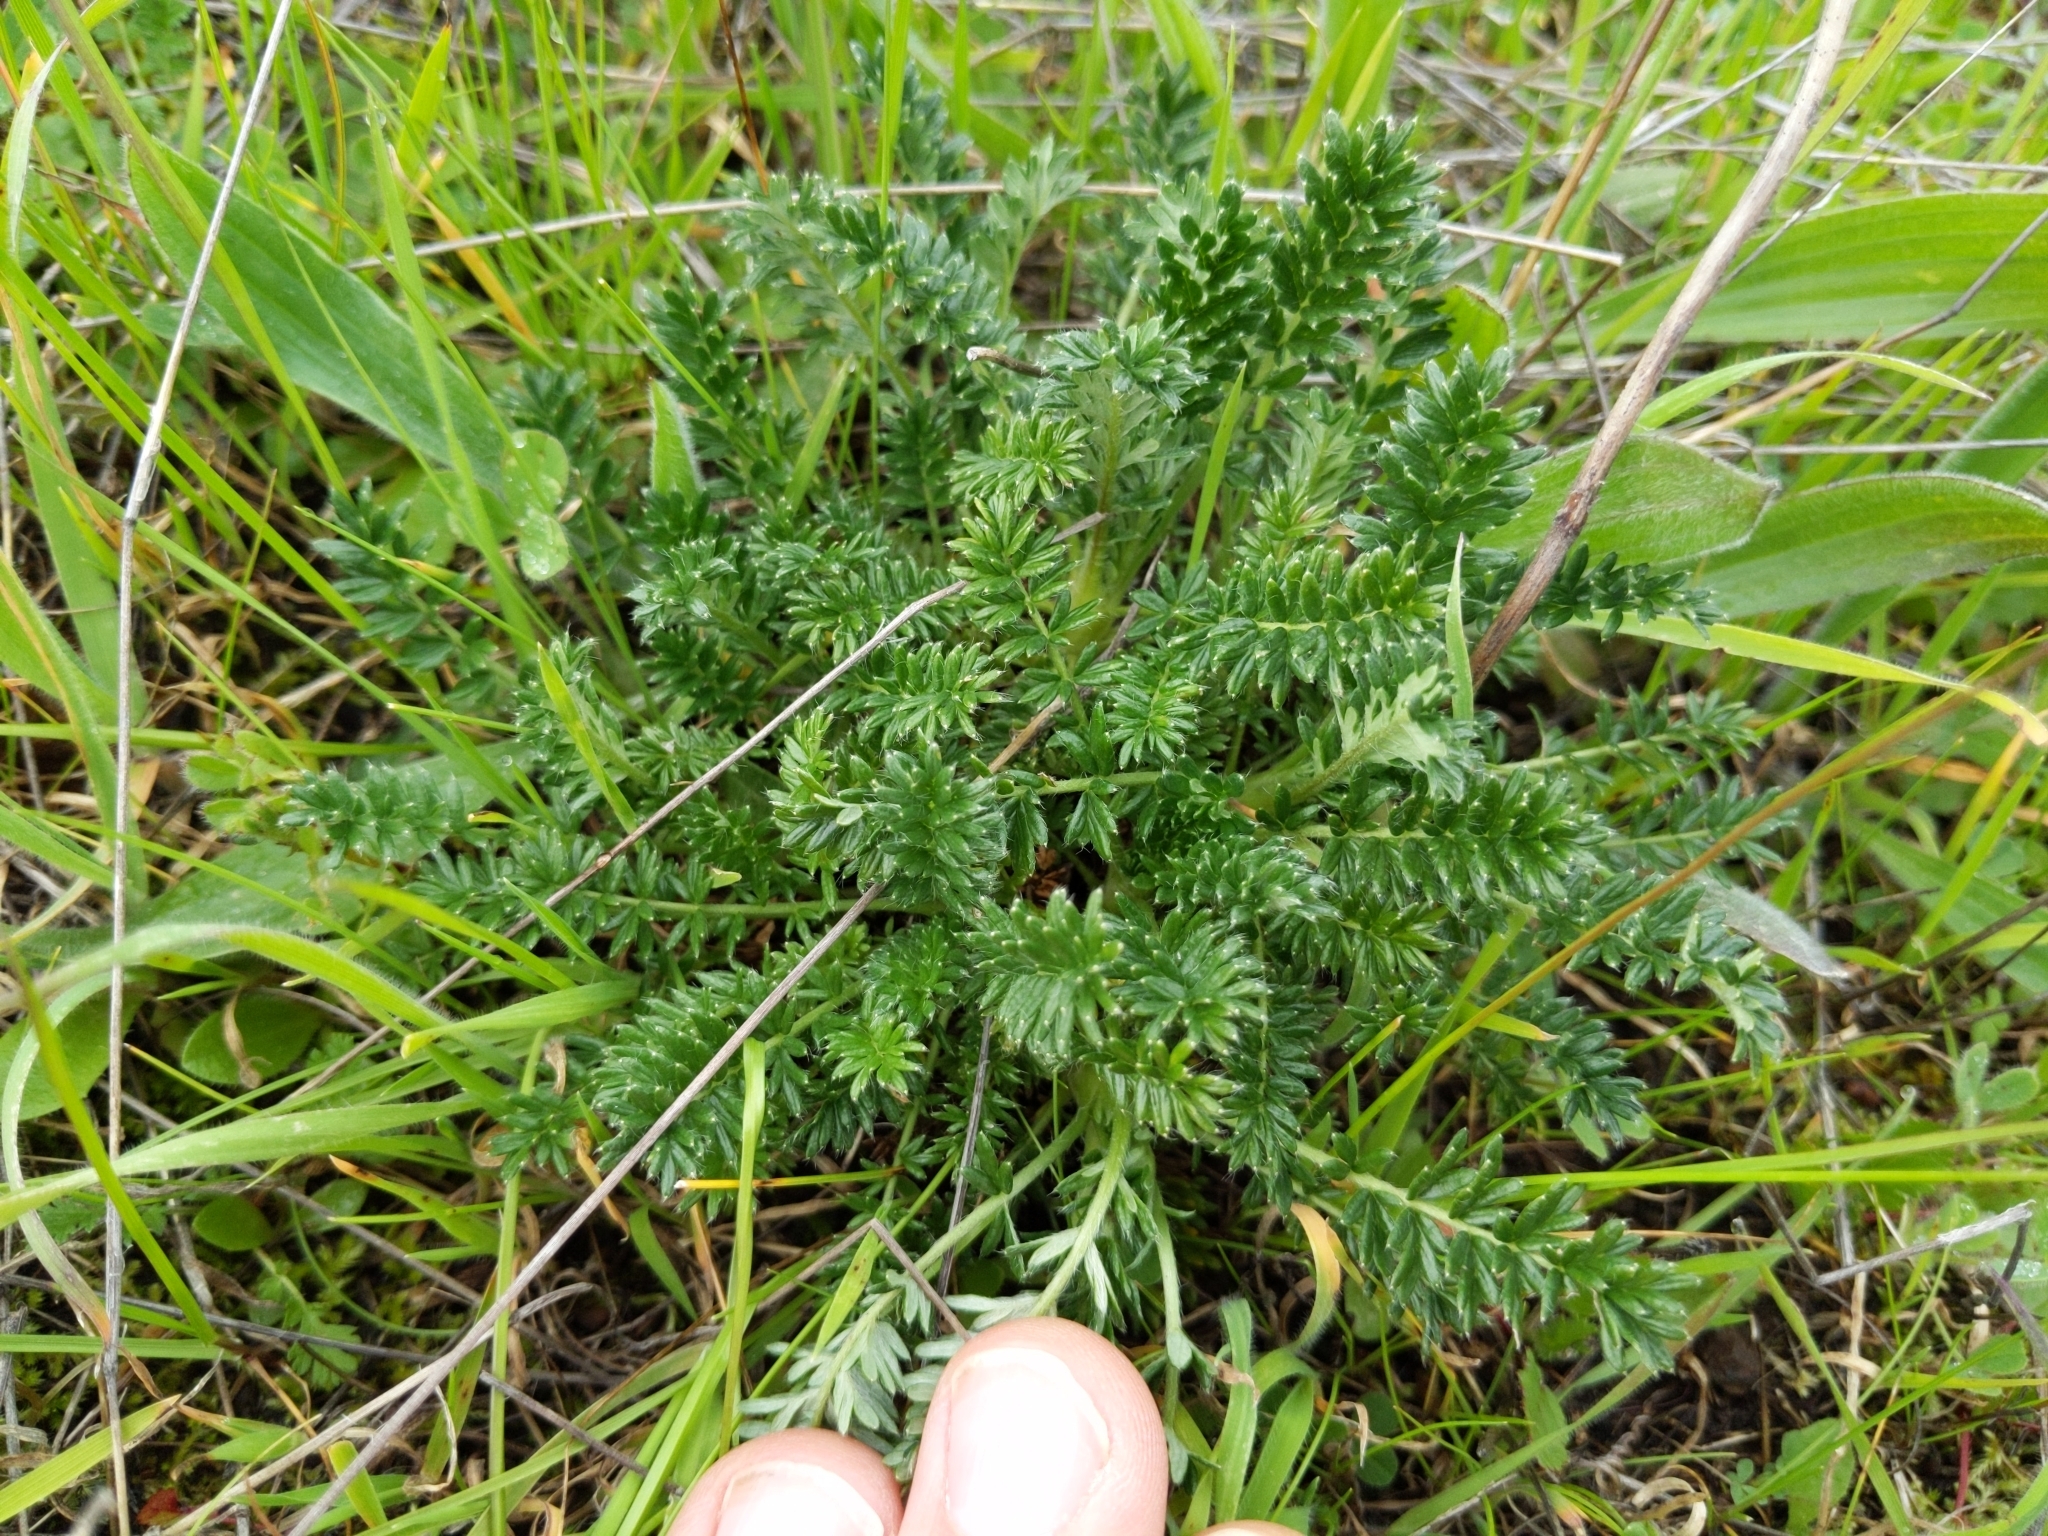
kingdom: Plantae
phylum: Tracheophyta
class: Magnoliopsida
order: Rosales
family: Rosaceae
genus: Acaena
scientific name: Acaena pinnatifida
